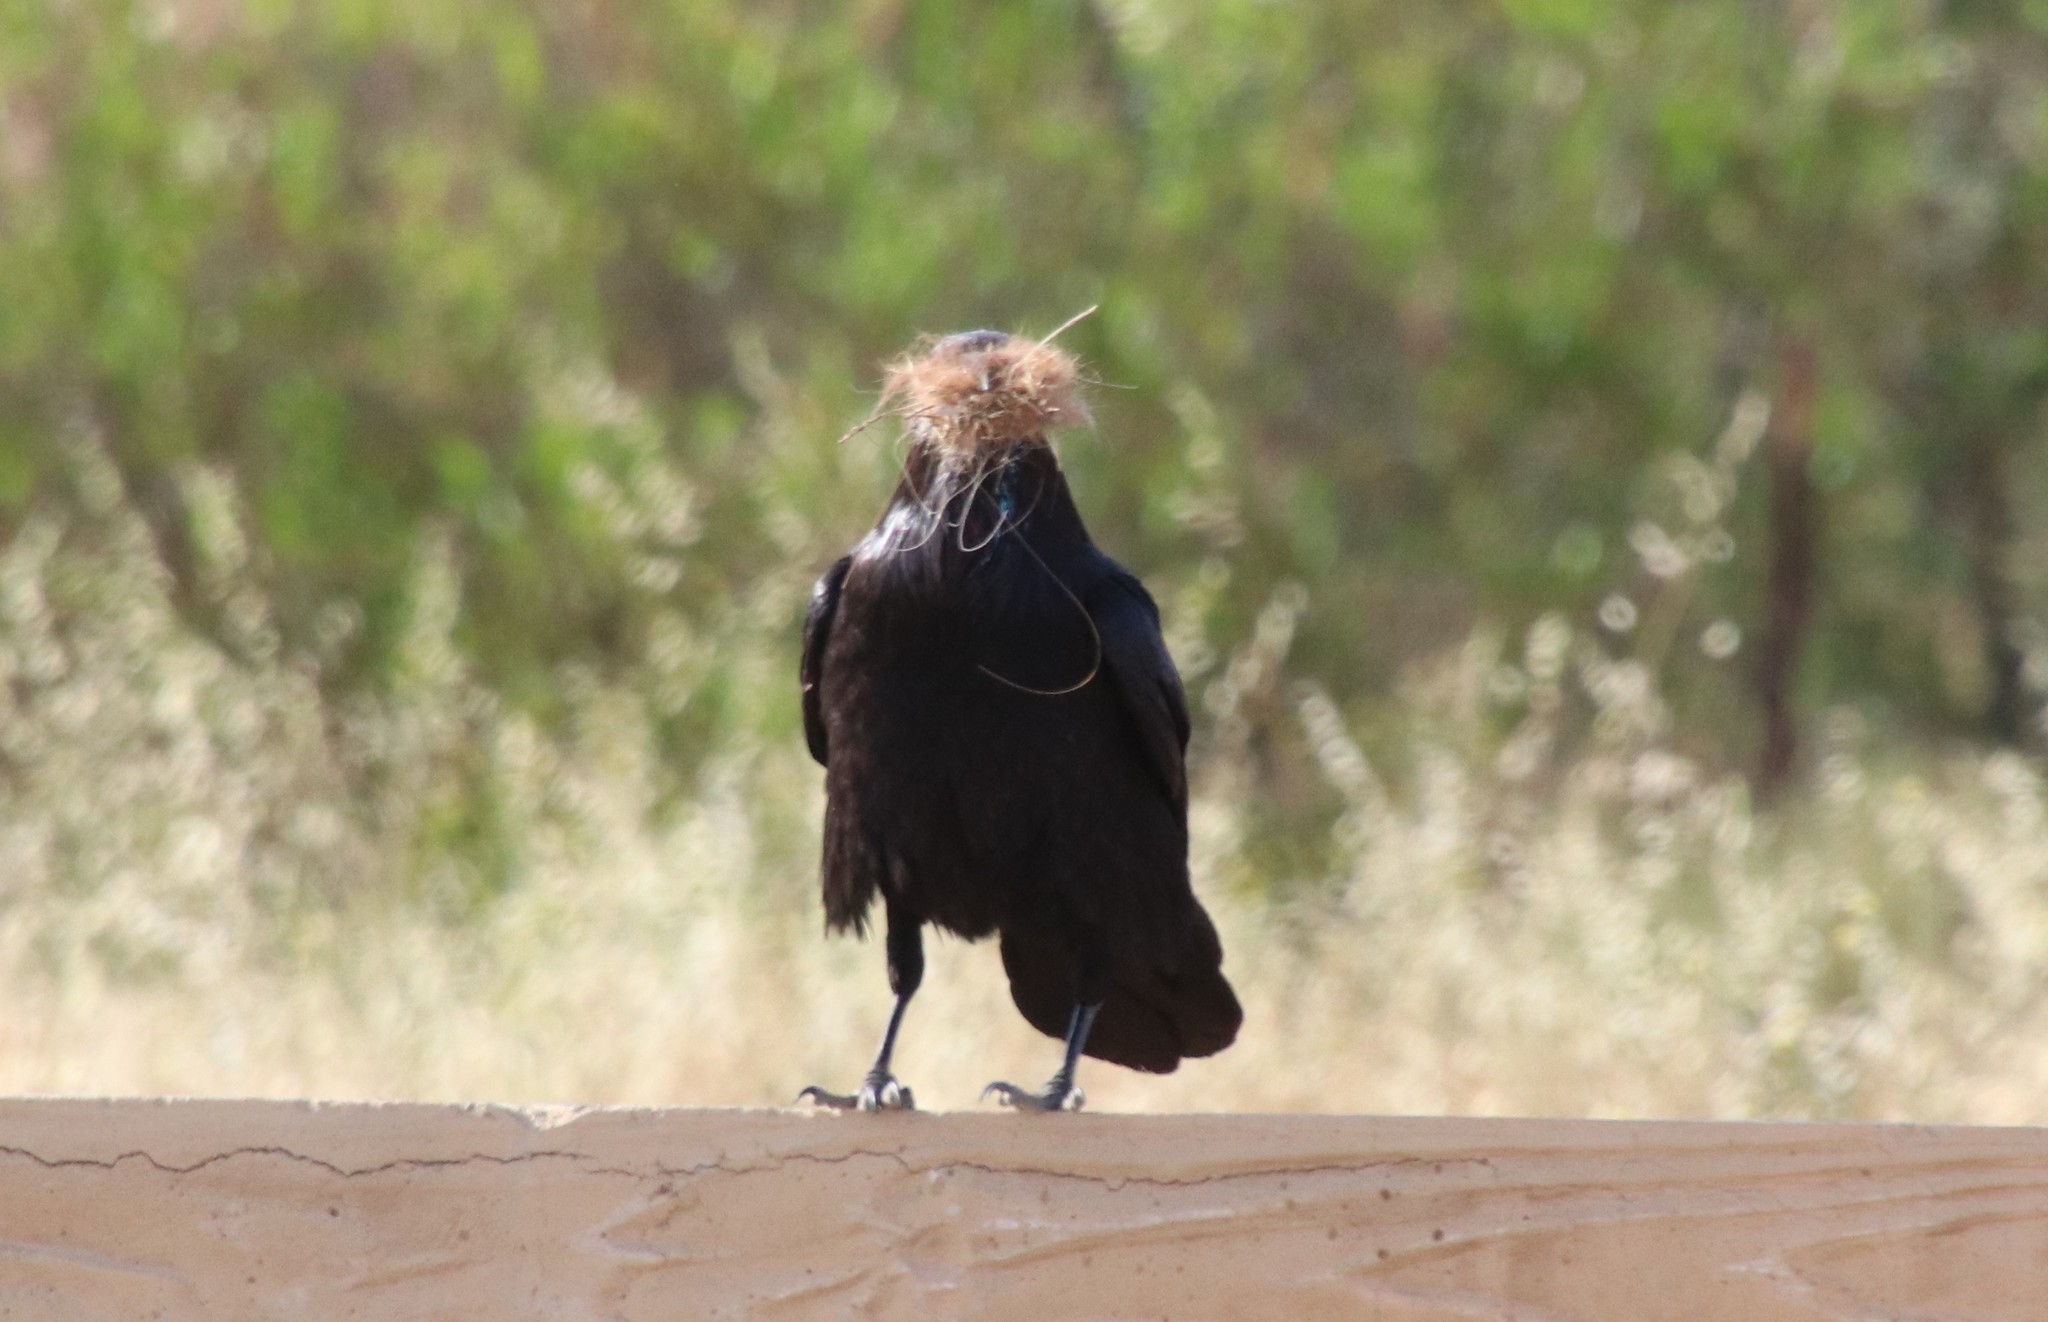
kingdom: Animalia
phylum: Chordata
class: Aves
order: Passeriformes
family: Corvidae
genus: Corvus
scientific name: Corvus corax
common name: Common raven
